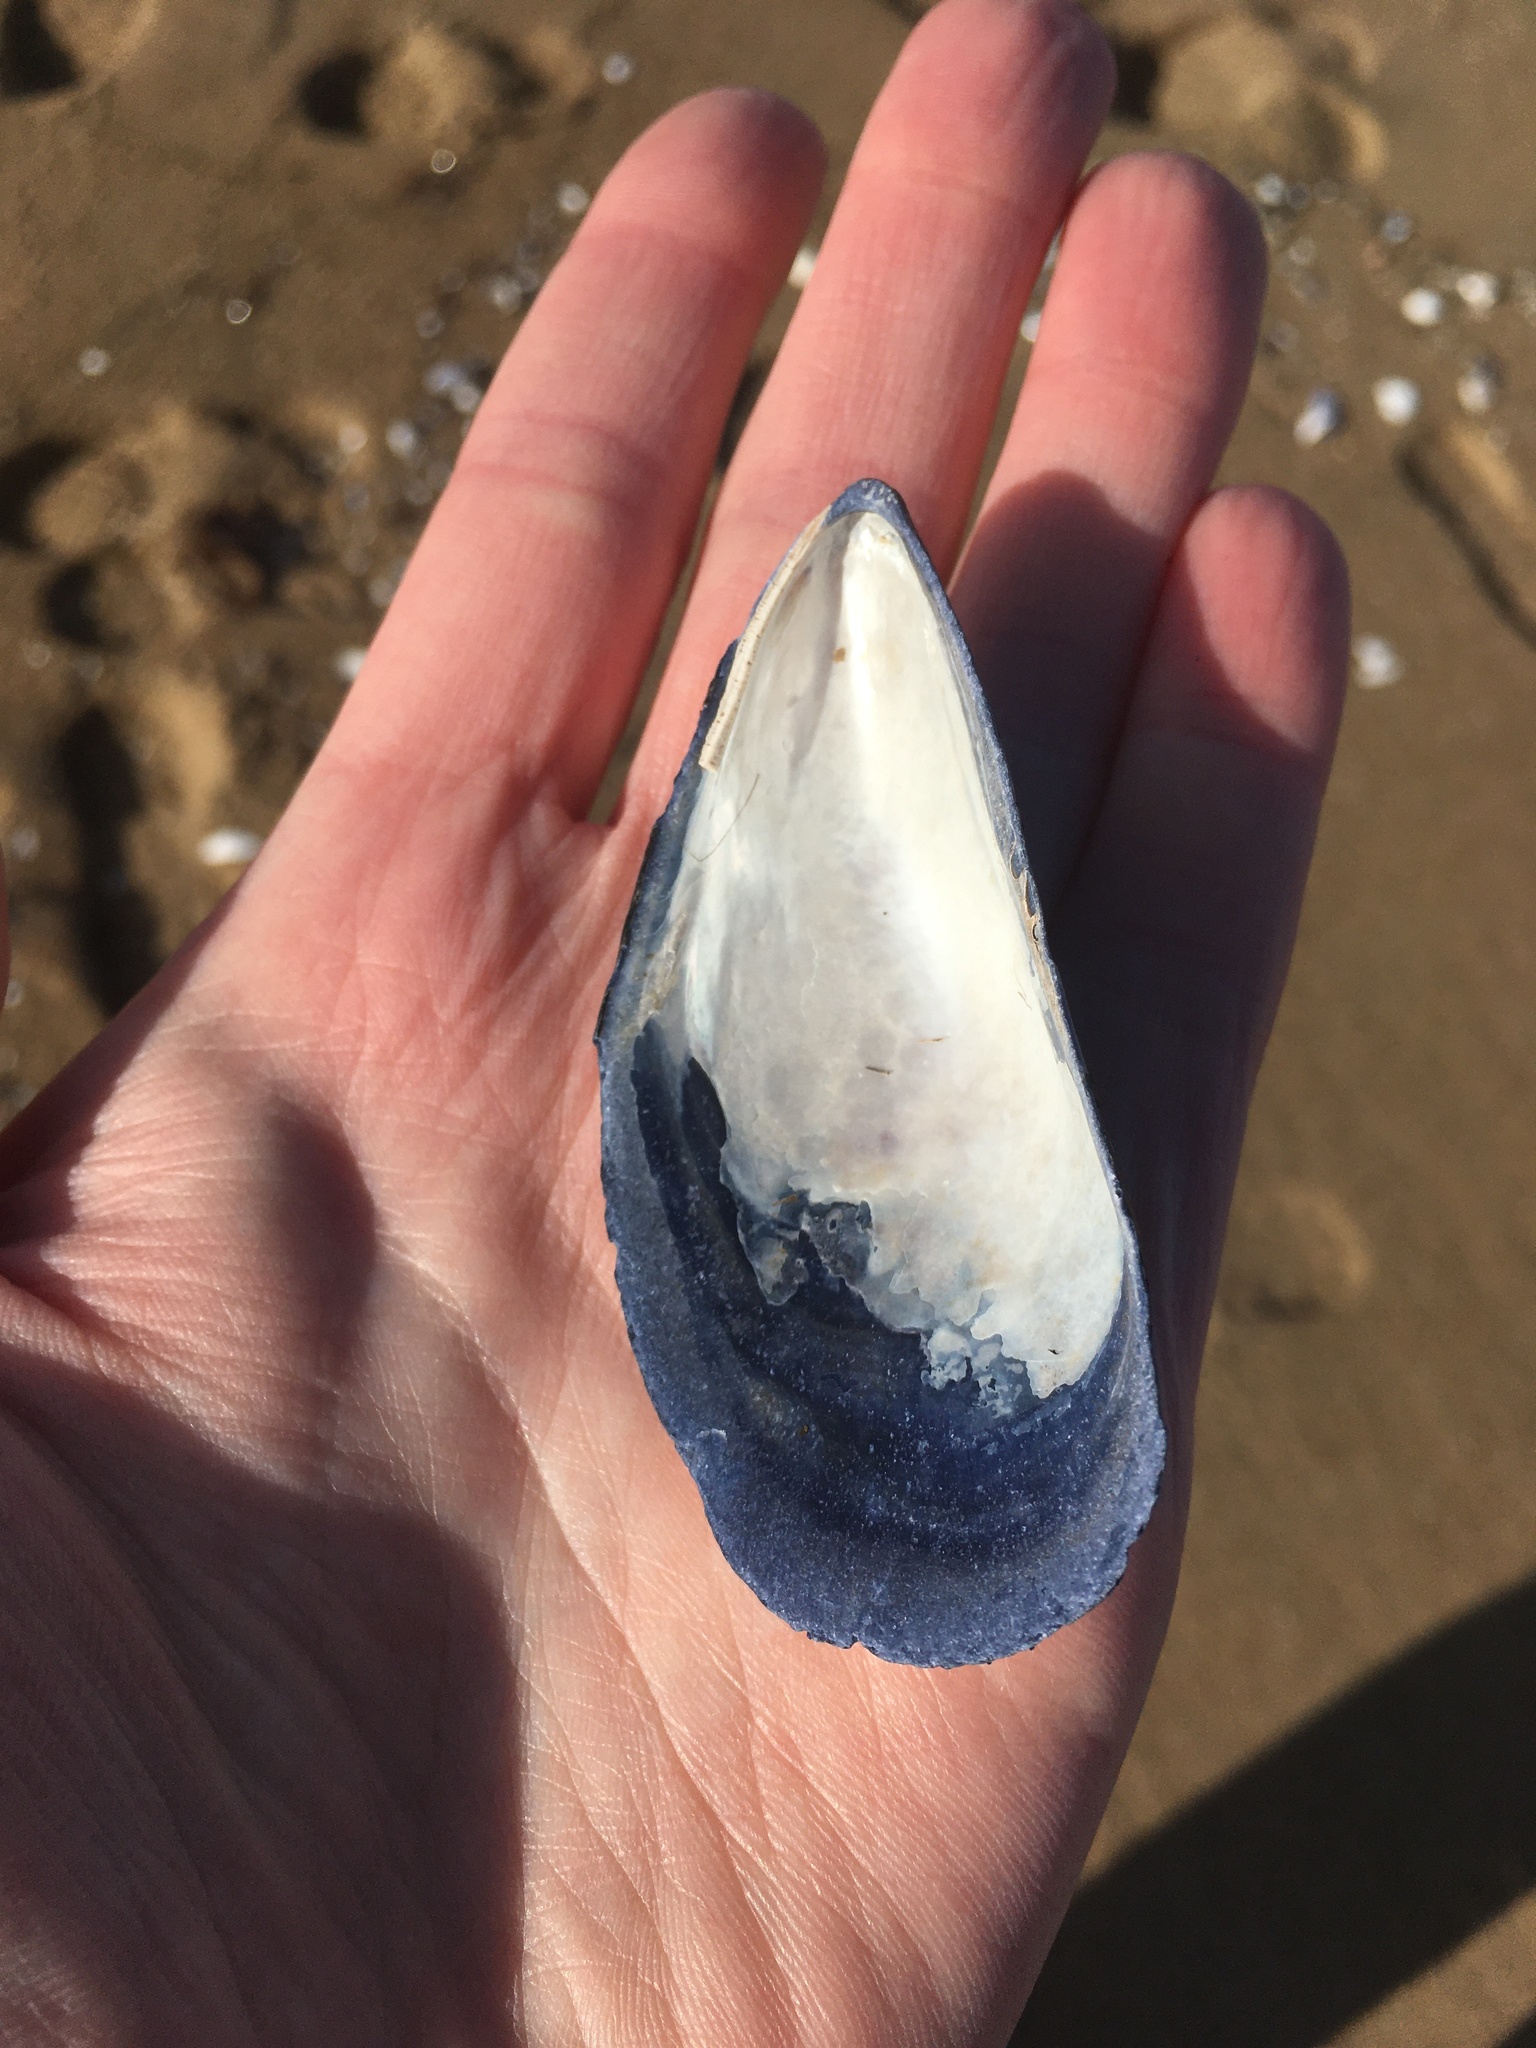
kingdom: Animalia
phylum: Mollusca
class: Bivalvia
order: Mytilida
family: Mytilidae
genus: Mytilus
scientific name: Mytilus edulis
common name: Blue mussel
